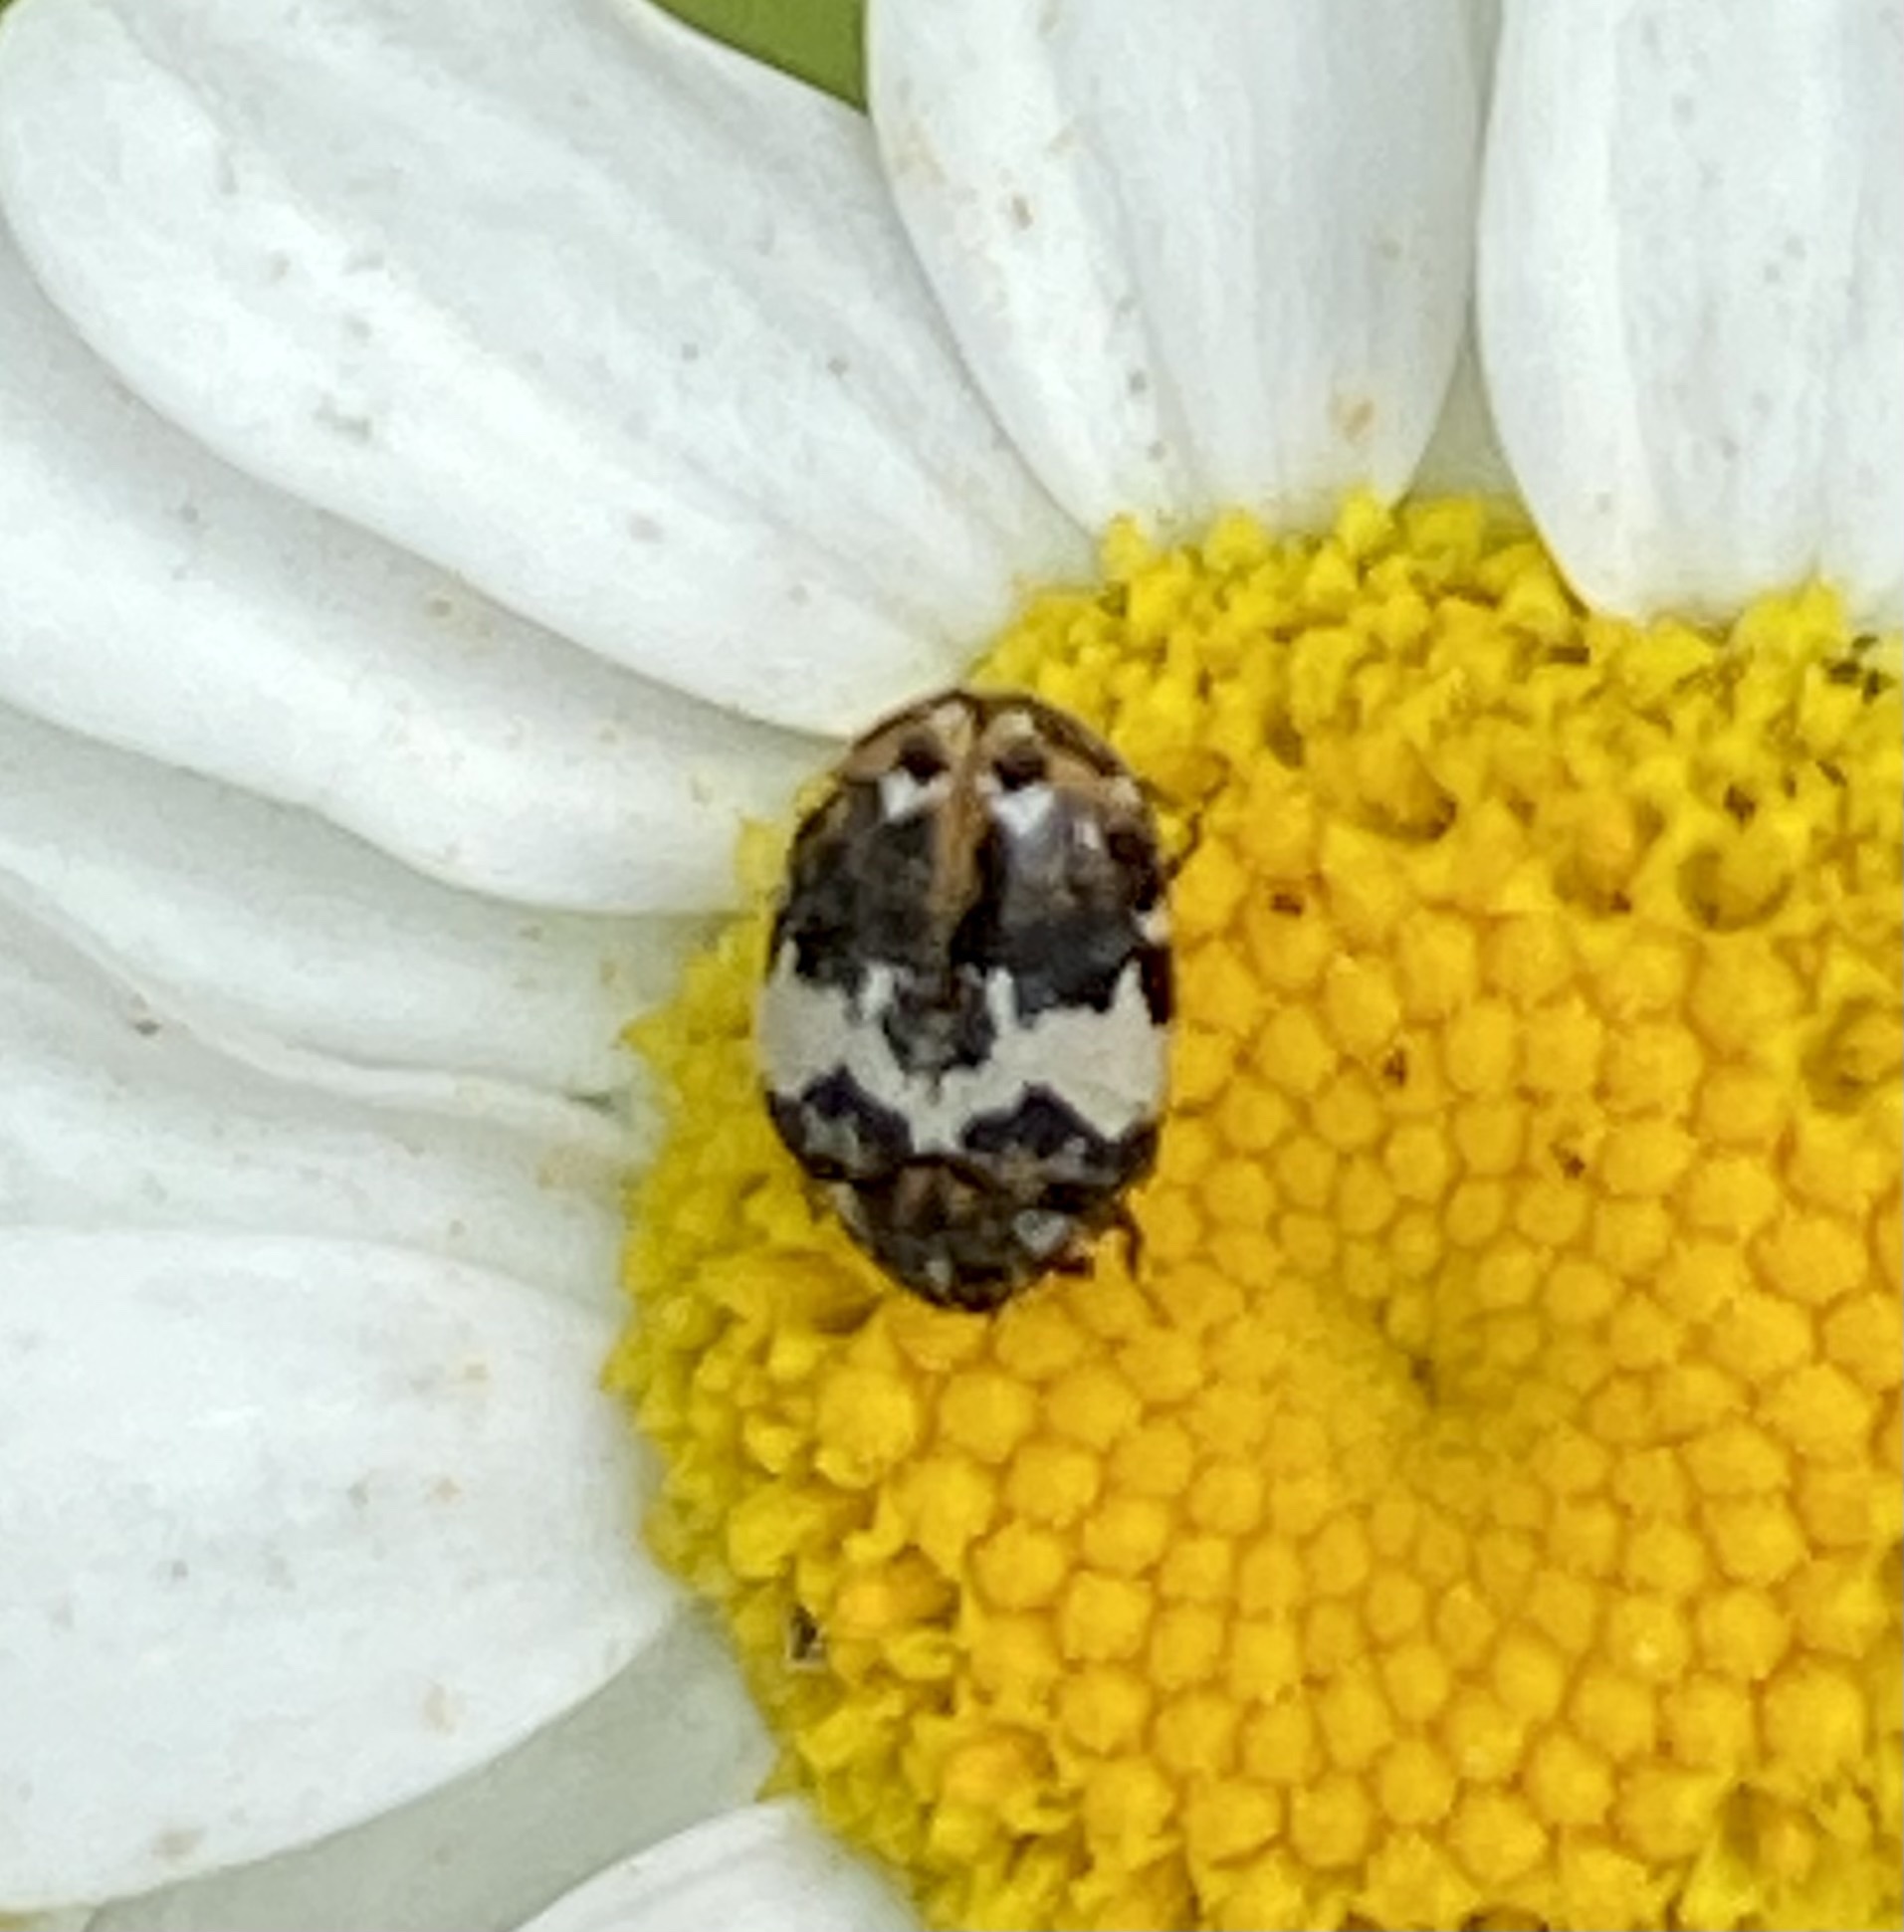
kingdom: Animalia
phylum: Arthropoda
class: Insecta
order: Coleoptera
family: Dermestidae
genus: Anthrenus
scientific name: Anthrenus pimpinellae
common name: Dermestid beetle
